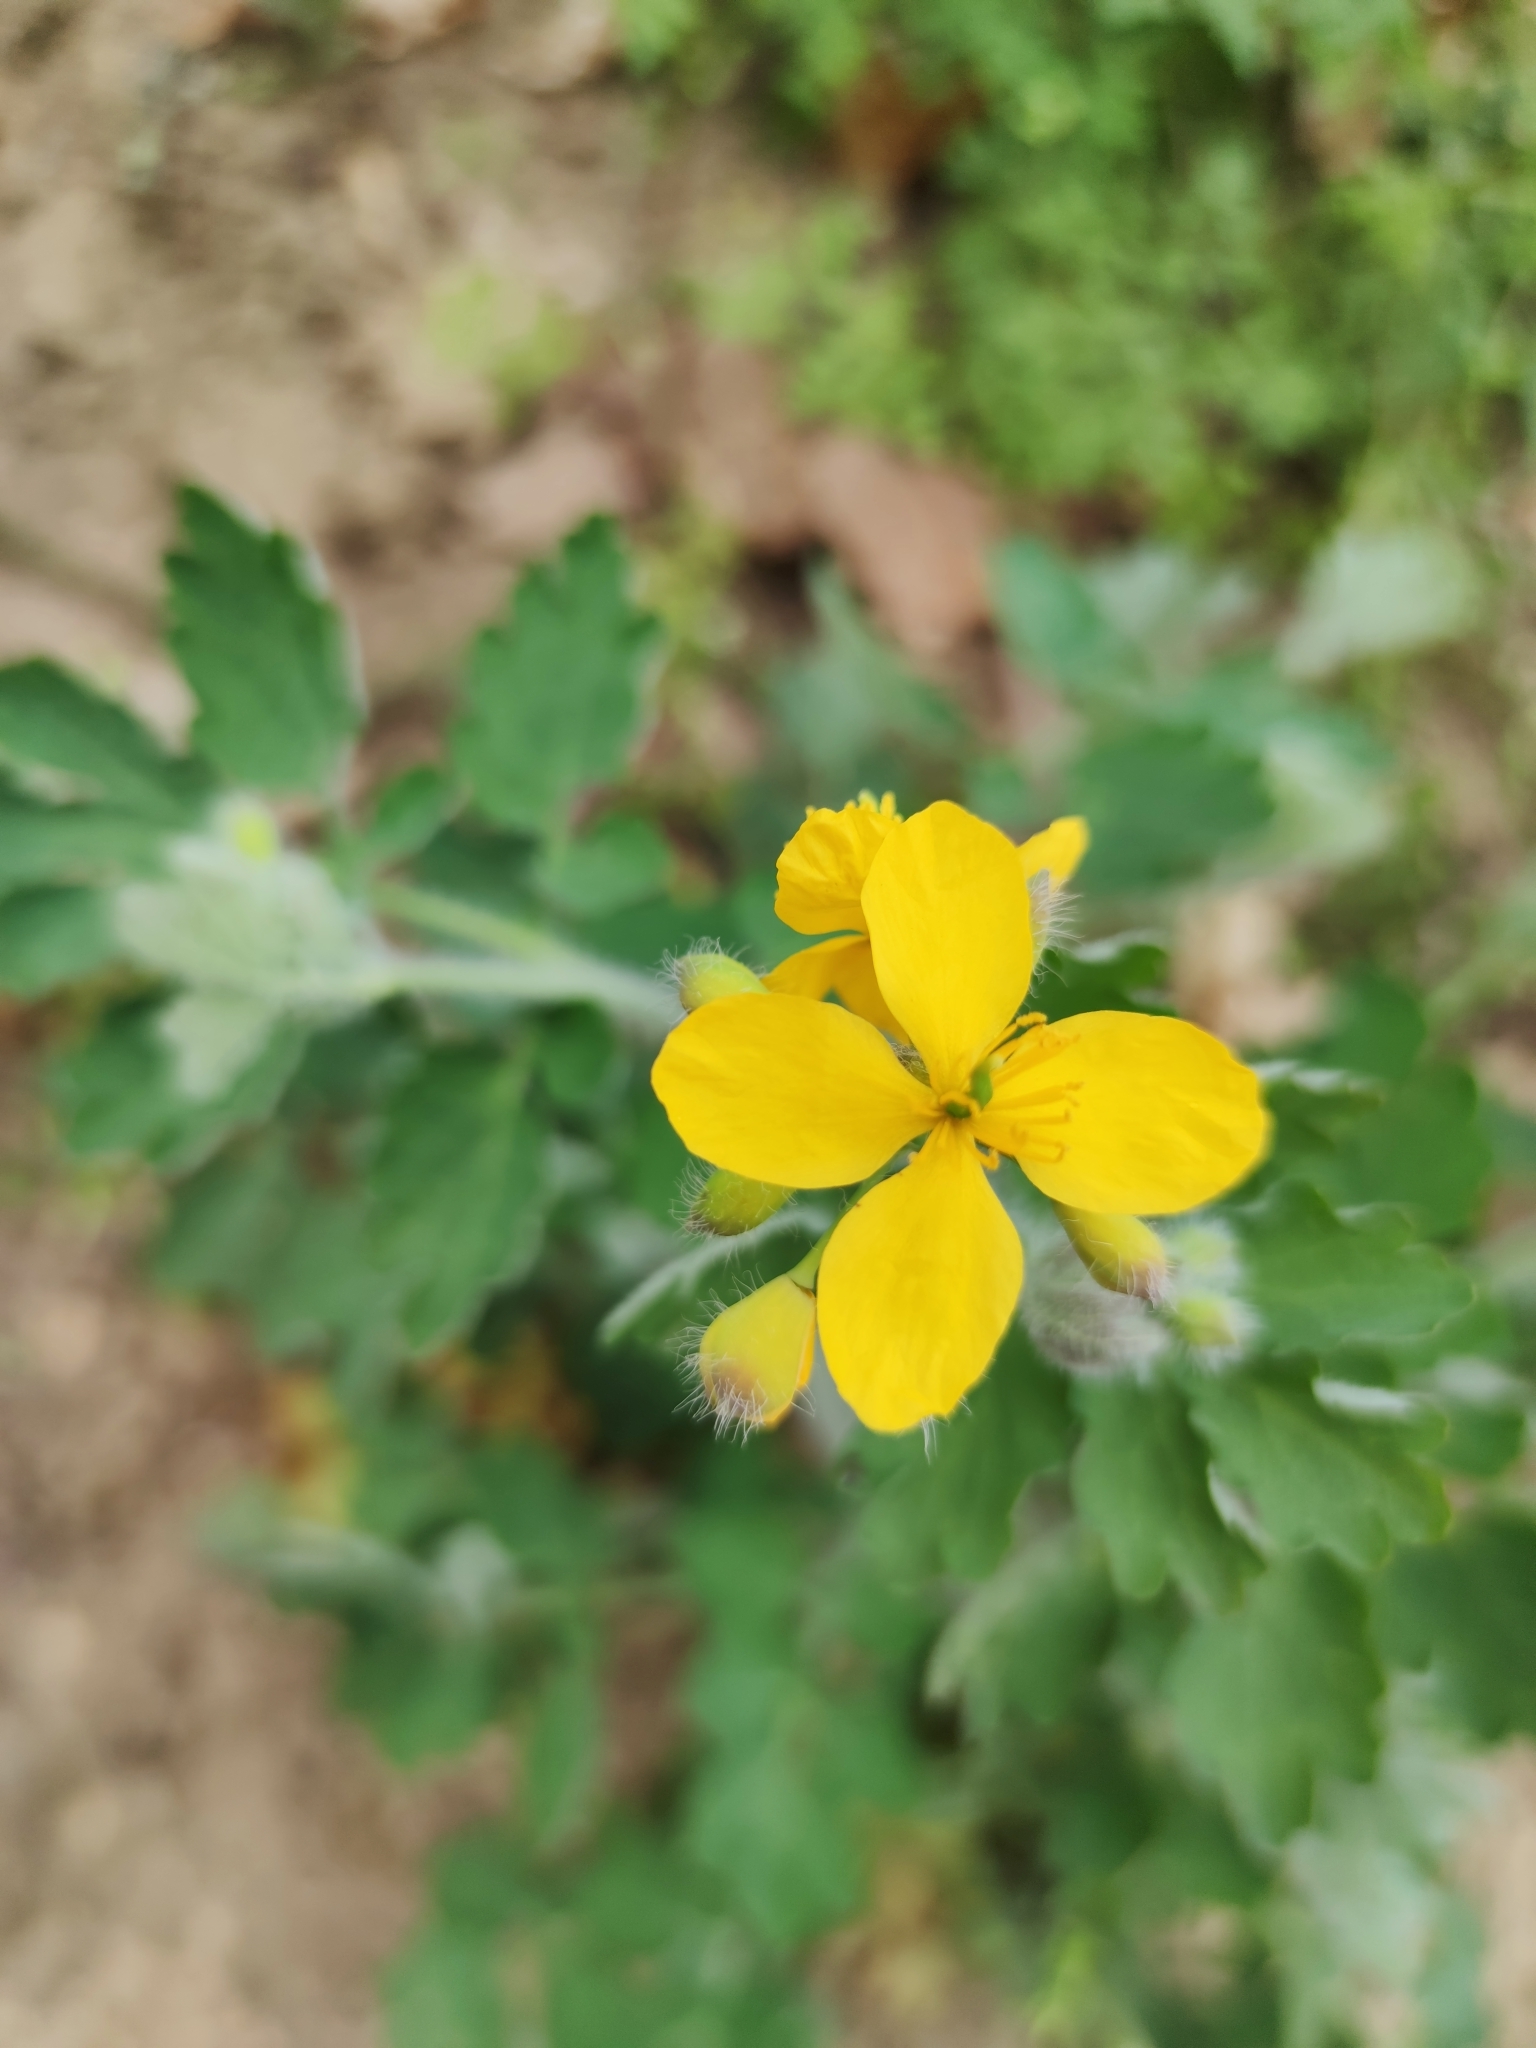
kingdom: Plantae
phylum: Tracheophyta
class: Magnoliopsida
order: Ranunculales
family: Papaveraceae
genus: Chelidonium
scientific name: Chelidonium majus
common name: Greater celandine
